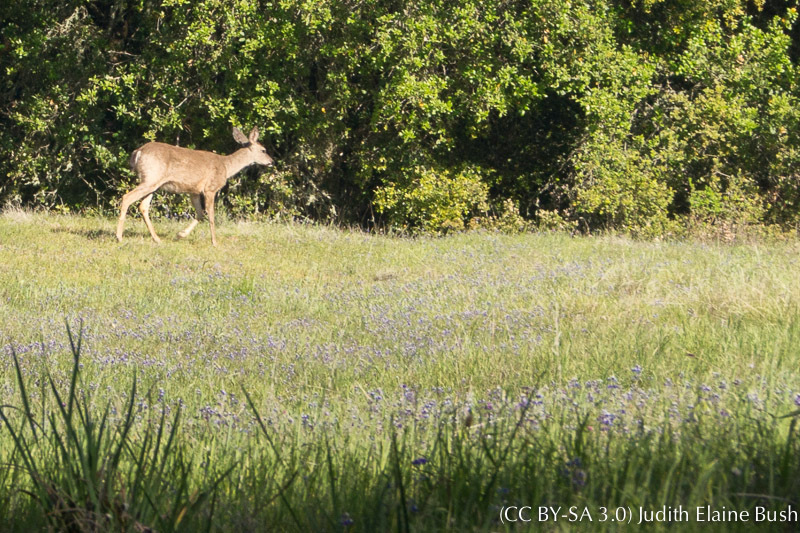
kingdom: Animalia
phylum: Chordata
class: Mammalia
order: Artiodactyla
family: Cervidae
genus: Odocoileus
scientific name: Odocoileus hemionus
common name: Mule deer
